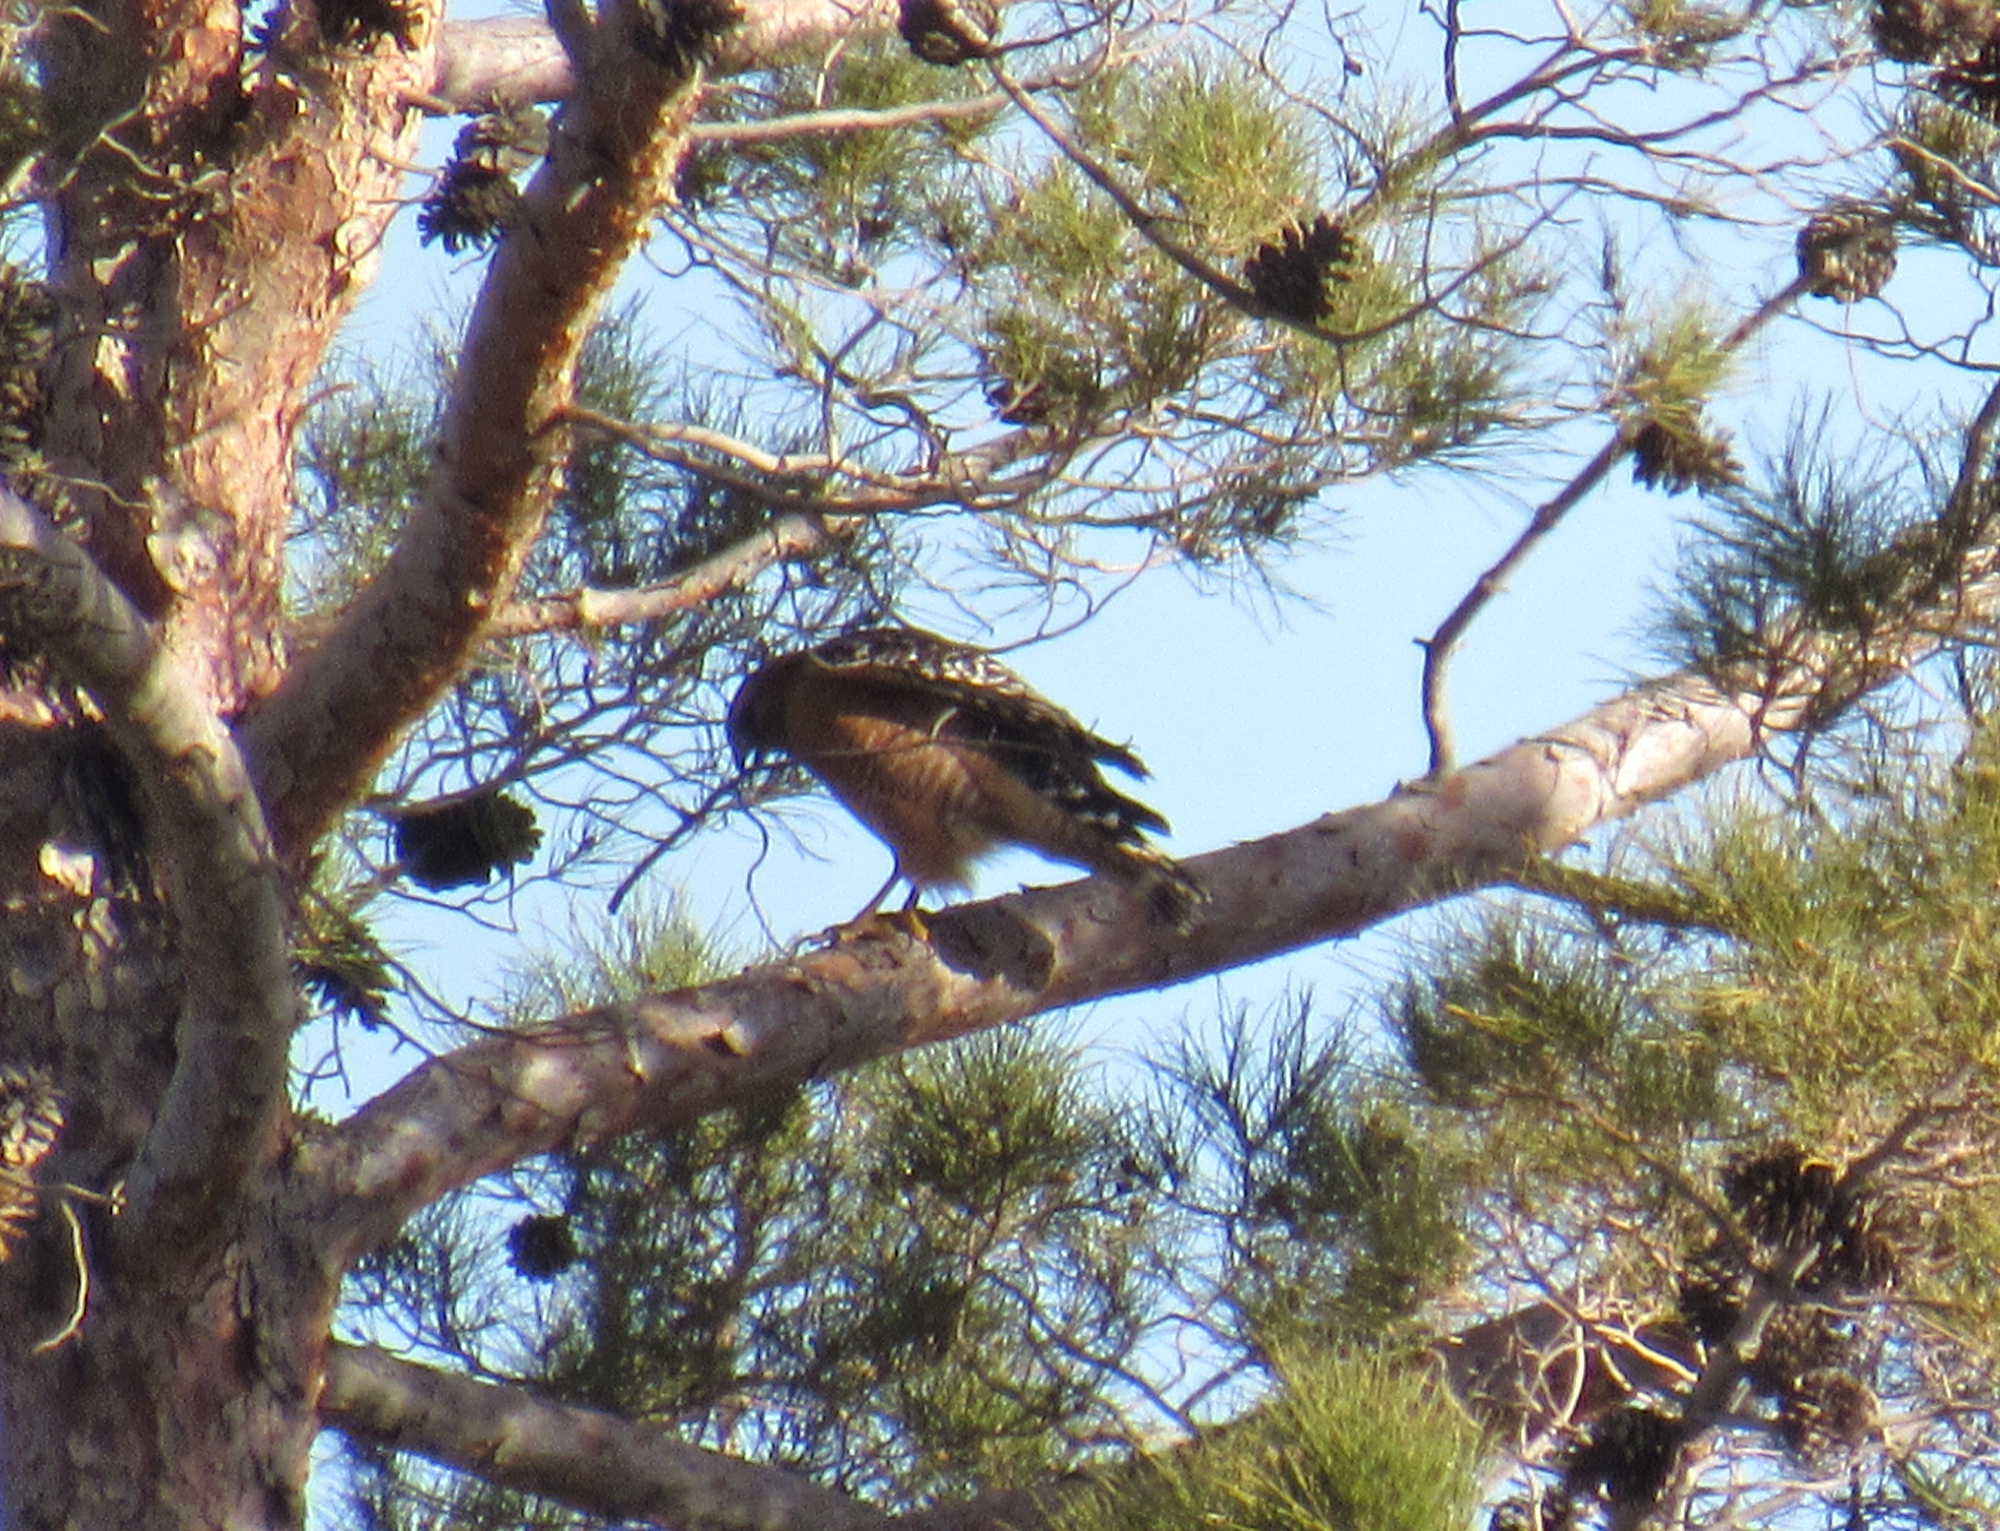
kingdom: Animalia
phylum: Chordata
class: Aves
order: Accipitriformes
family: Accipitridae
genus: Buteo
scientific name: Buteo lineatus
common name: Red-shouldered hawk
